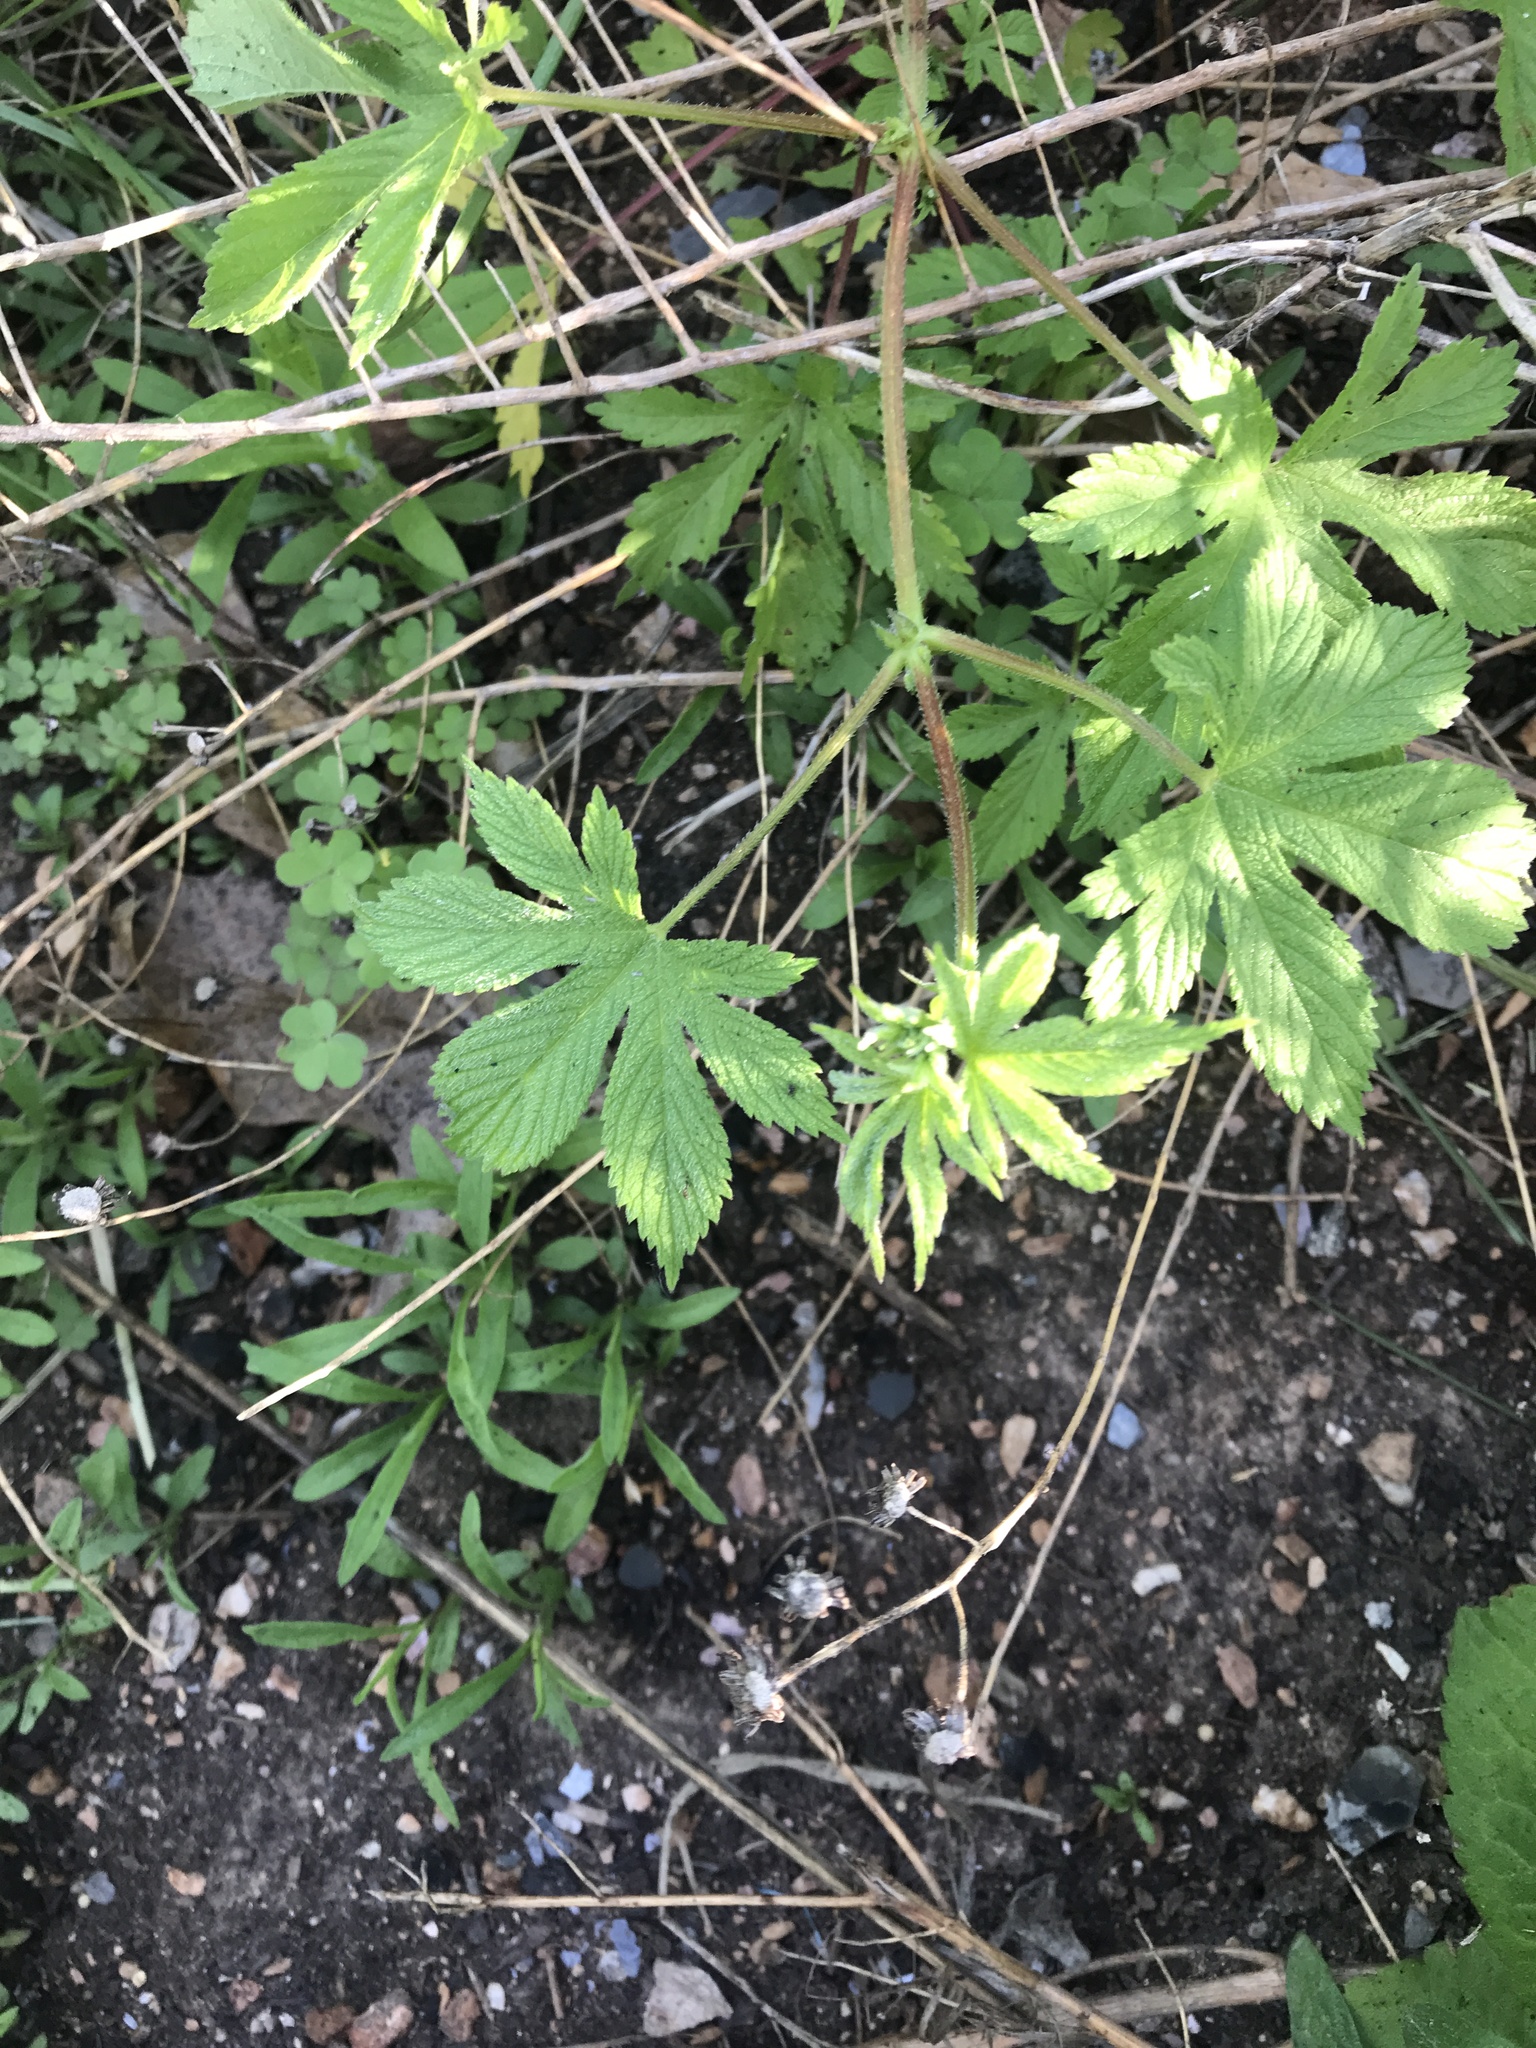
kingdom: Plantae
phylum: Tracheophyta
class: Magnoliopsida
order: Rosales
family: Cannabaceae
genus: Humulus
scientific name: Humulus scandens
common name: Japanese hop
